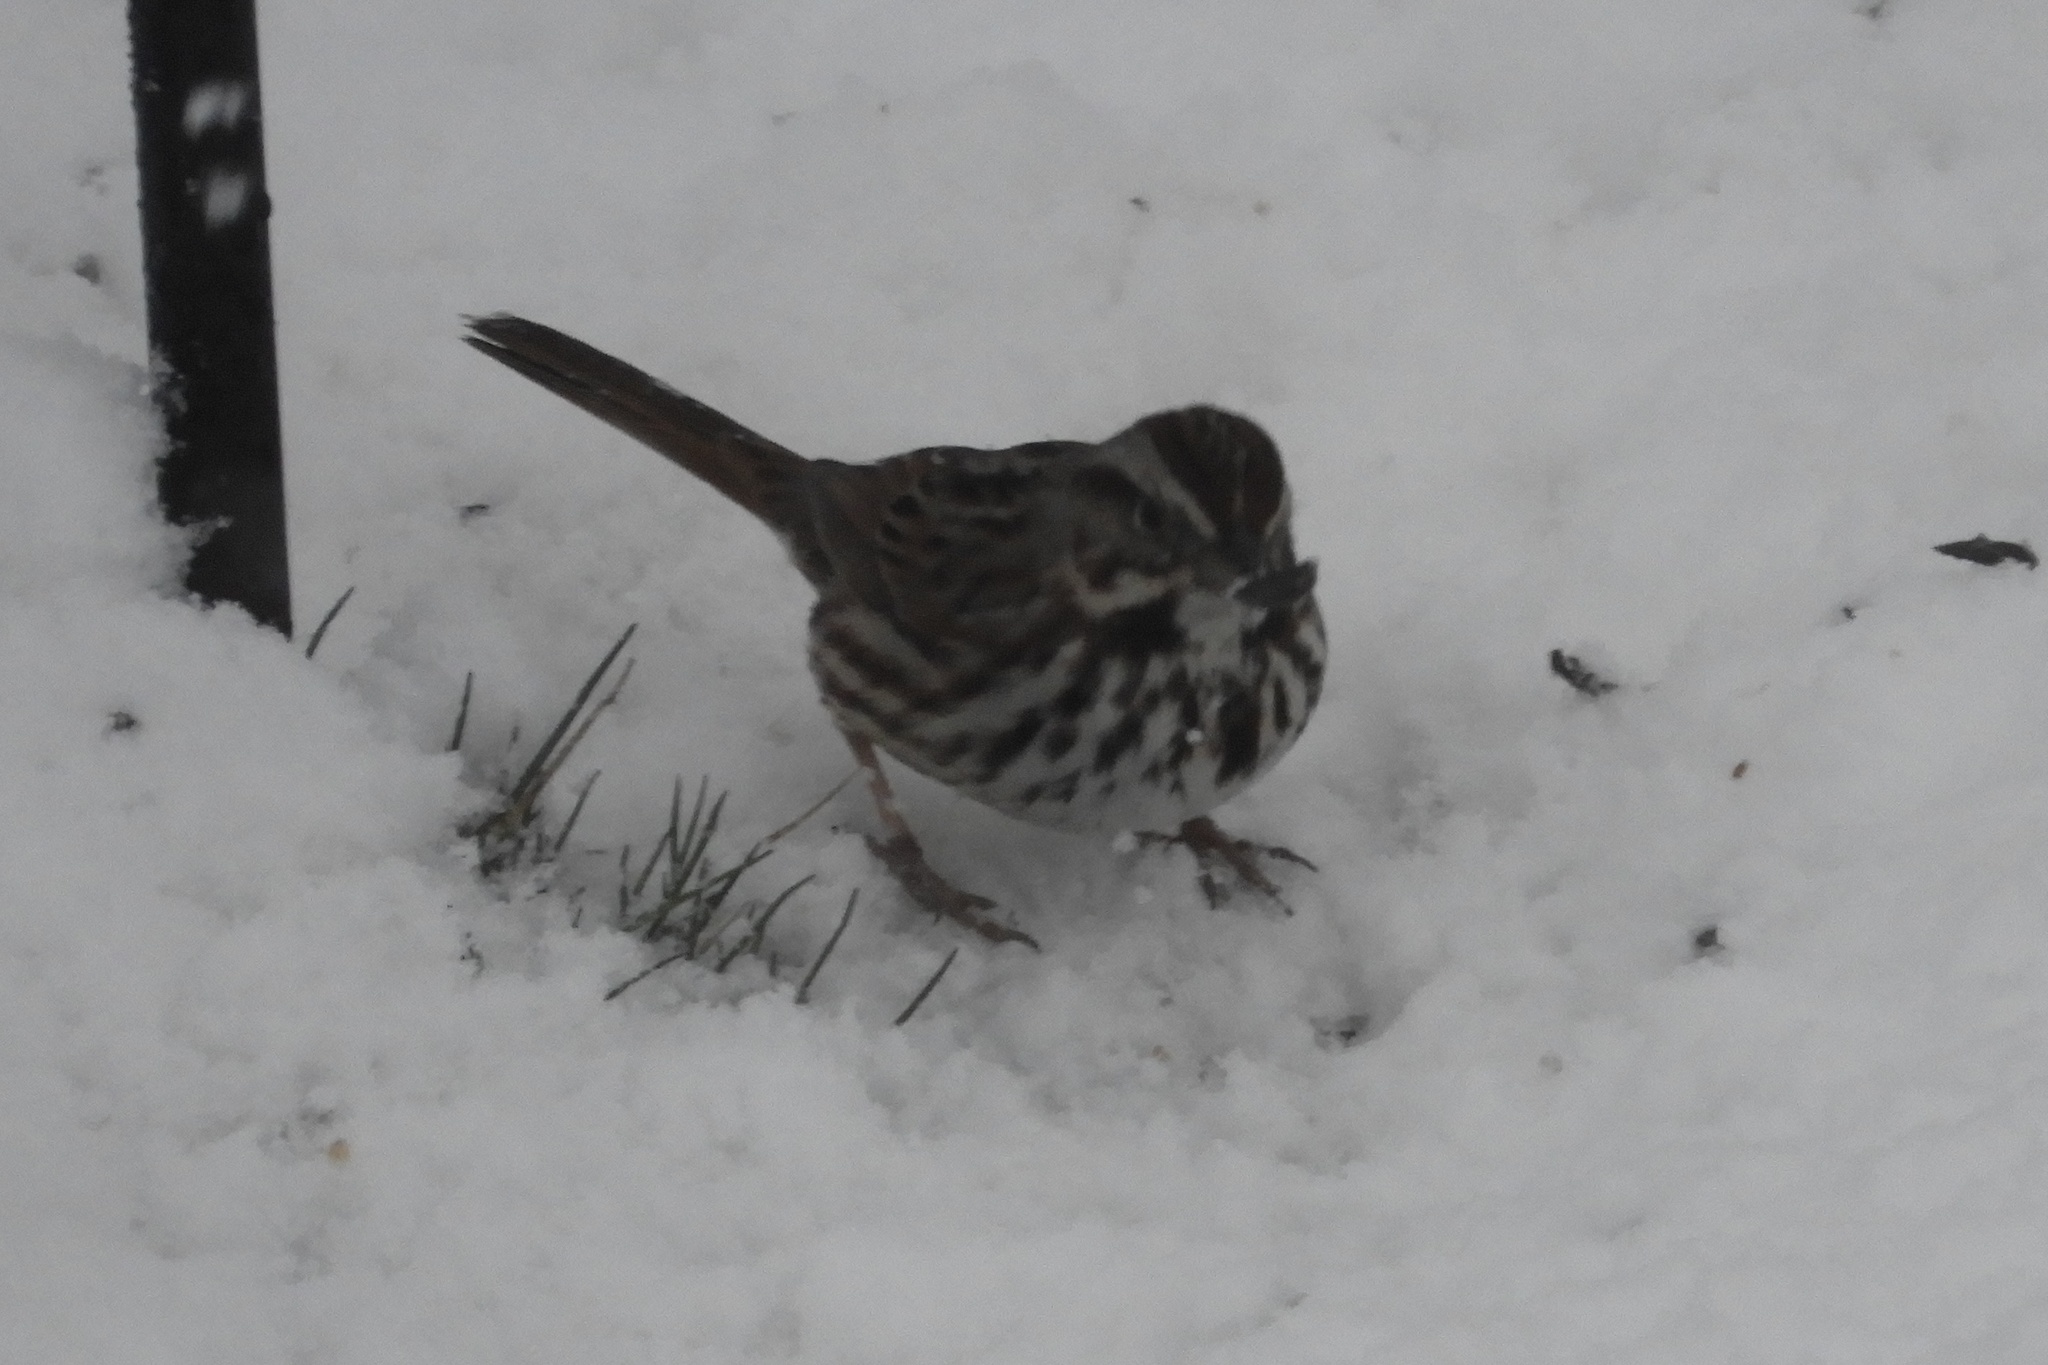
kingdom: Animalia
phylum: Chordata
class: Aves
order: Passeriformes
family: Passerellidae
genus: Melospiza
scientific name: Melospiza melodia
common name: Song sparrow
